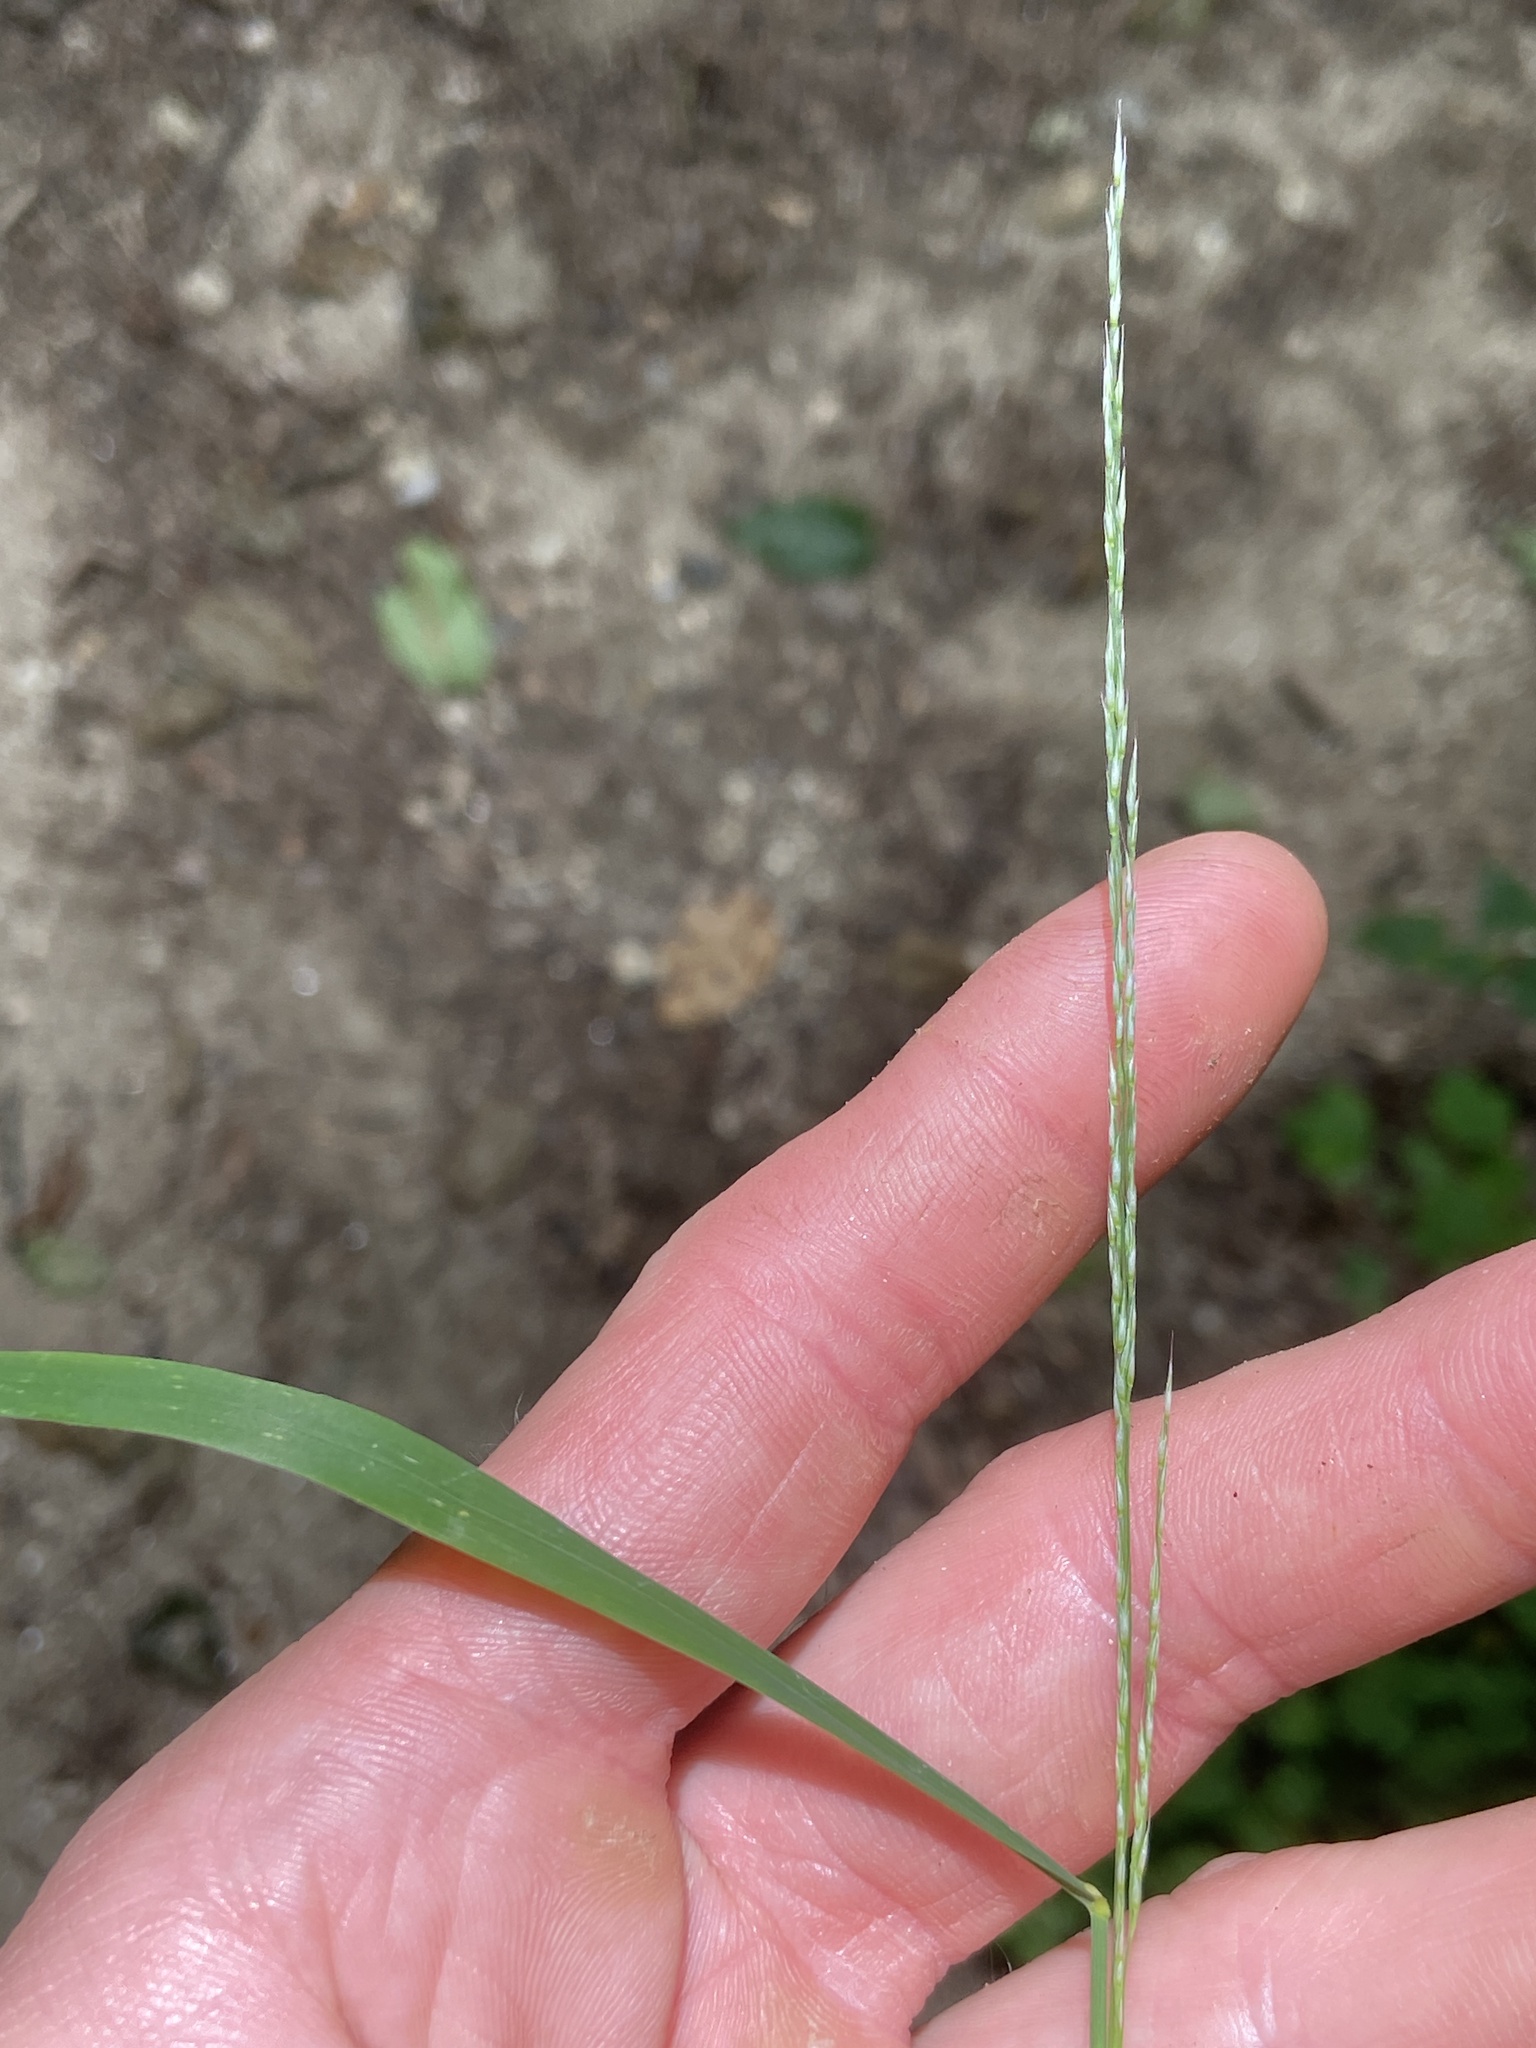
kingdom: Plantae
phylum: Tracheophyta
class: Liliopsida
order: Poales
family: Poaceae
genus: Muhlenbergia
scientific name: Muhlenbergia tenuiflora
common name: Slender muhly
